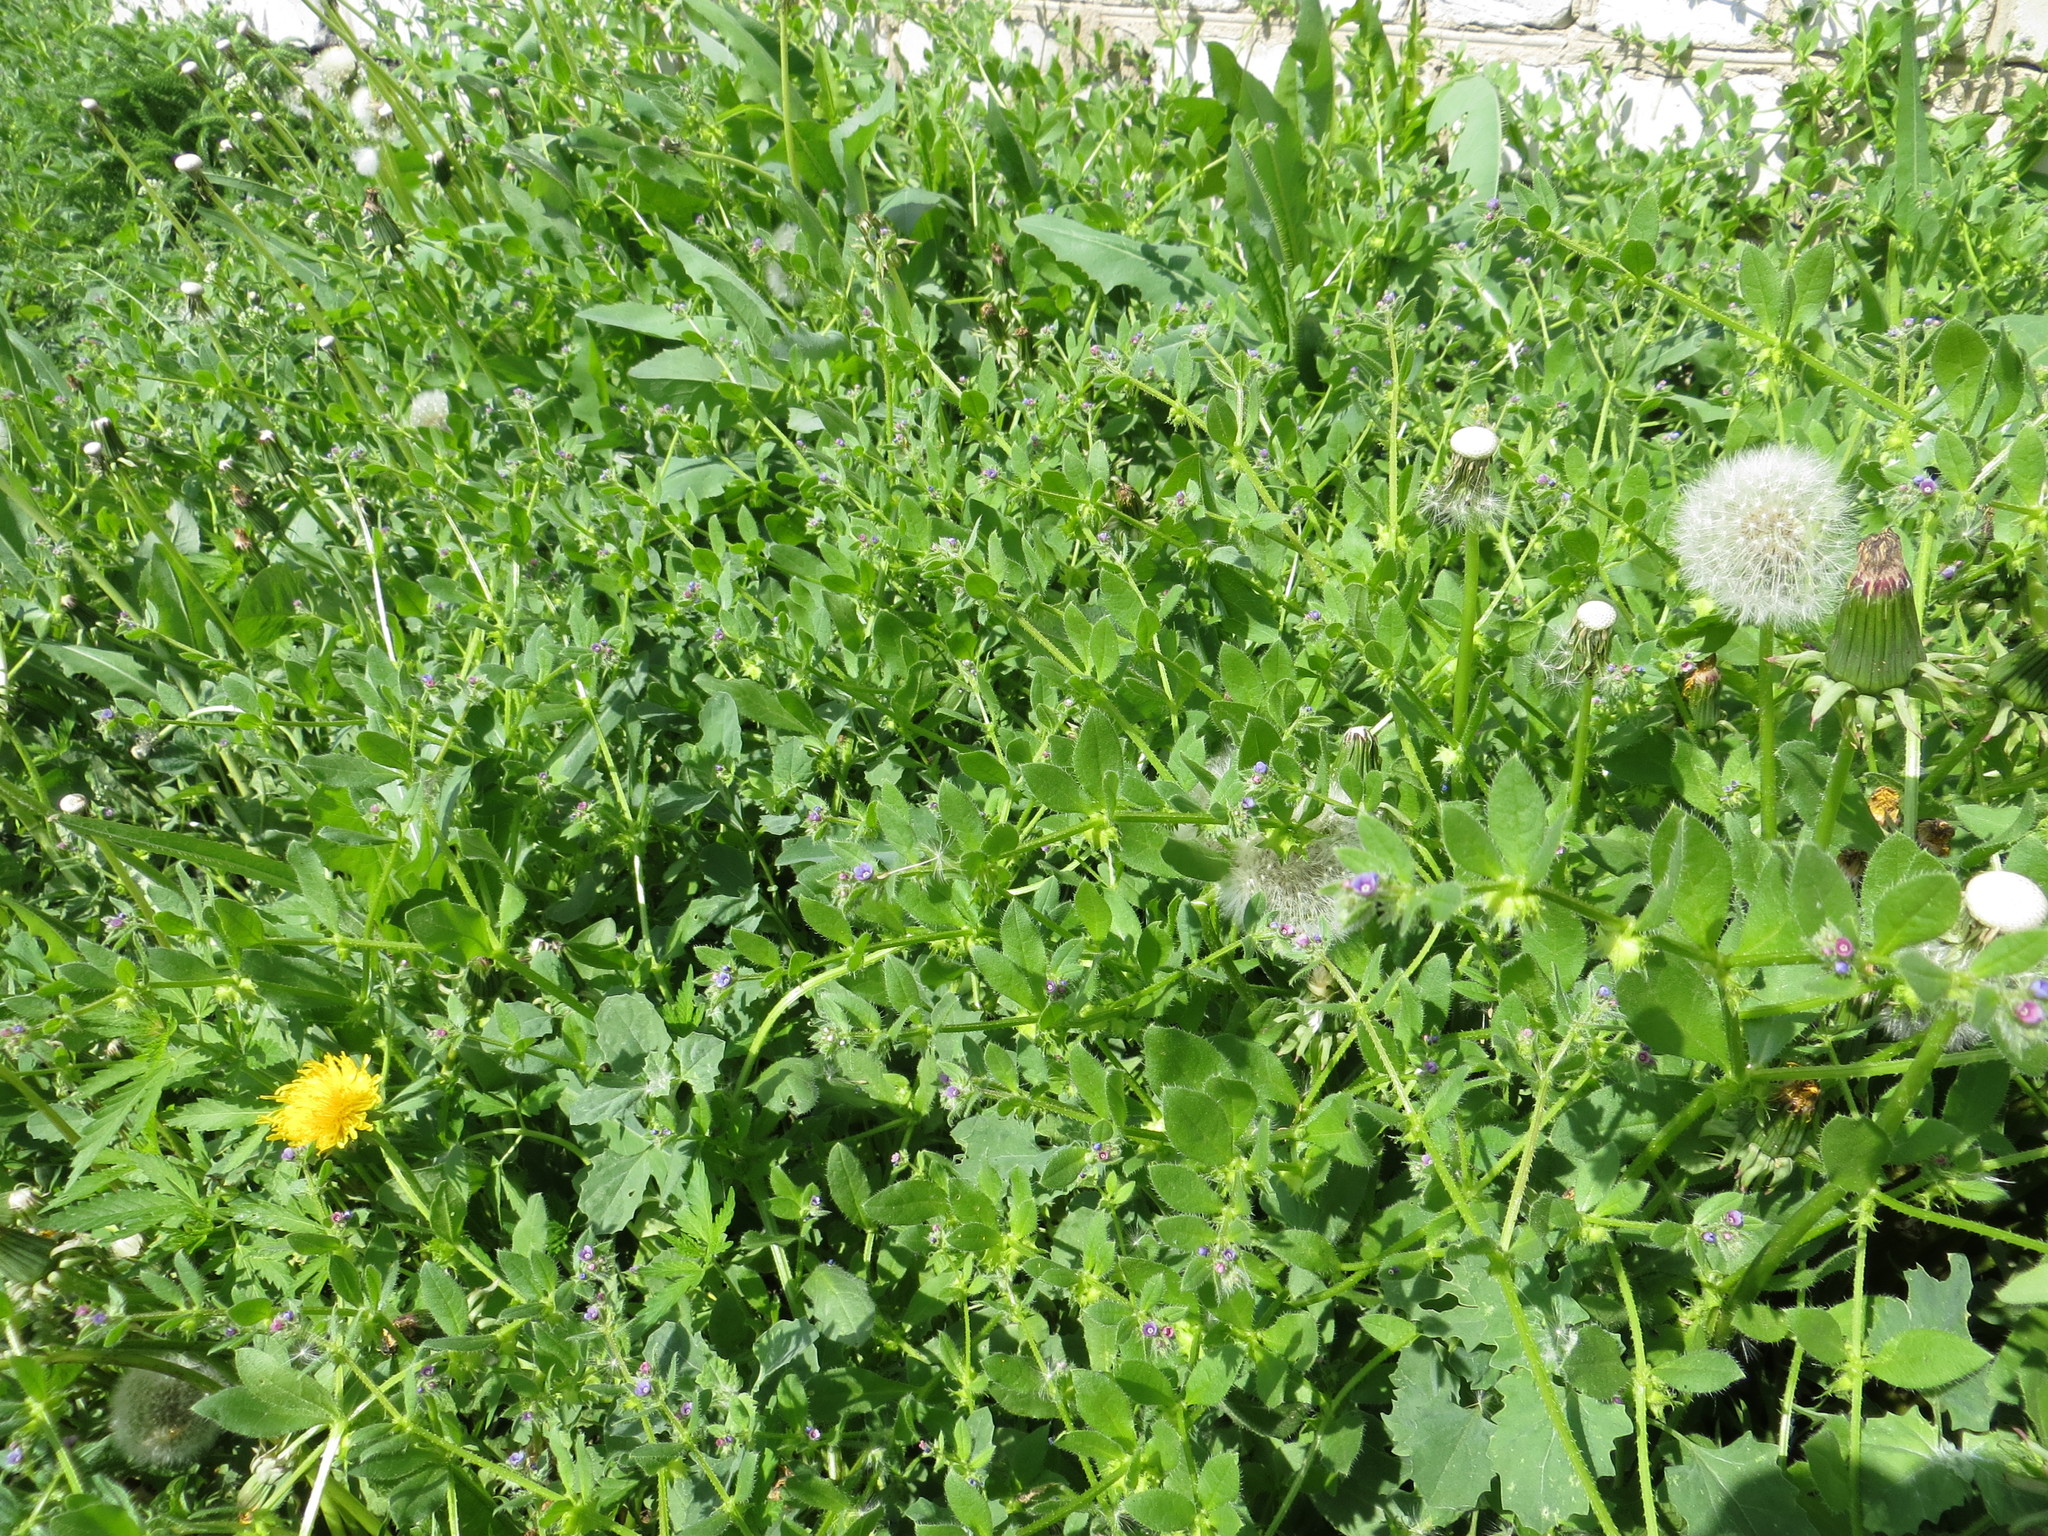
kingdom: Plantae
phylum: Tracheophyta
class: Magnoliopsida
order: Boraginales
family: Boraginaceae
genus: Asperugo
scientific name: Asperugo procumbens
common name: Madwort
